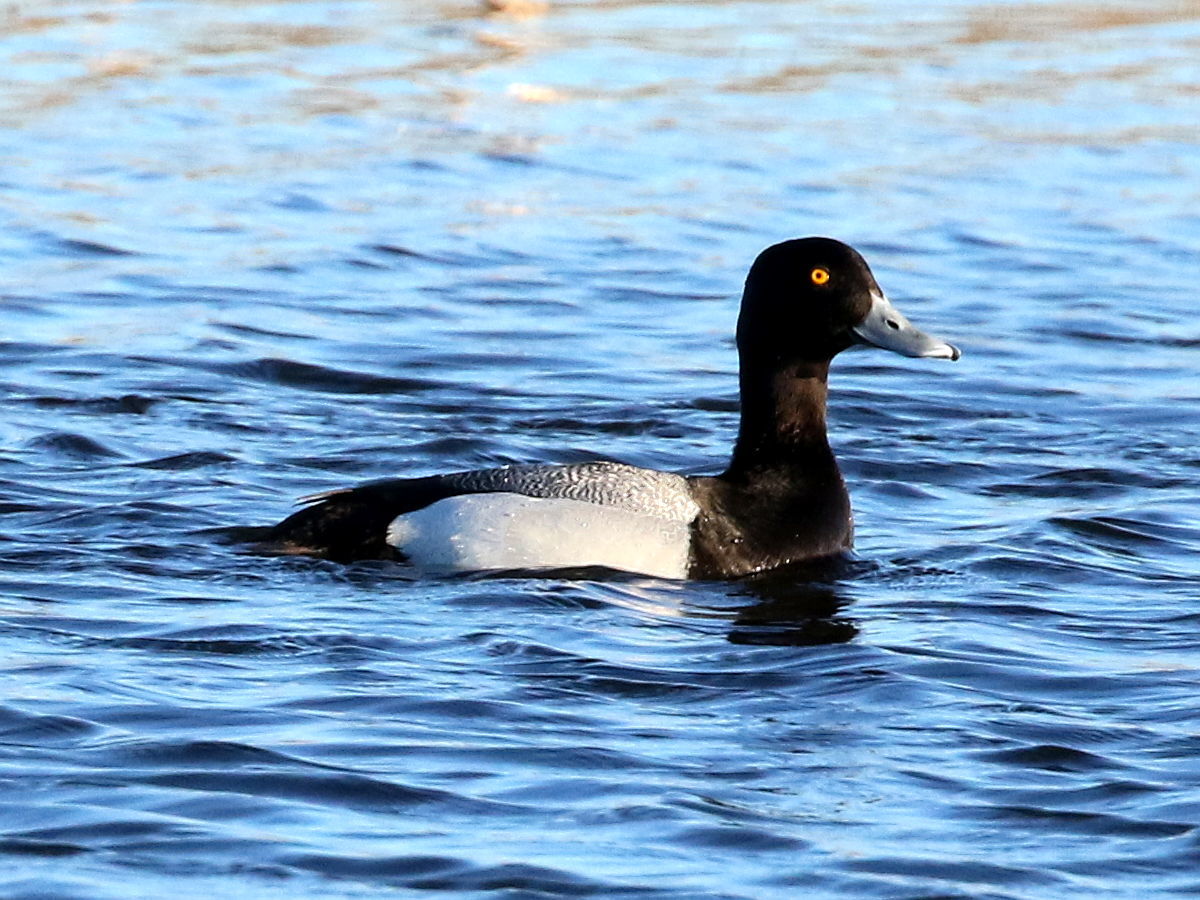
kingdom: Animalia
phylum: Chordata
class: Aves
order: Anseriformes
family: Anatidae
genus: Aythya
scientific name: Aythya affinis
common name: Lesser scaup
